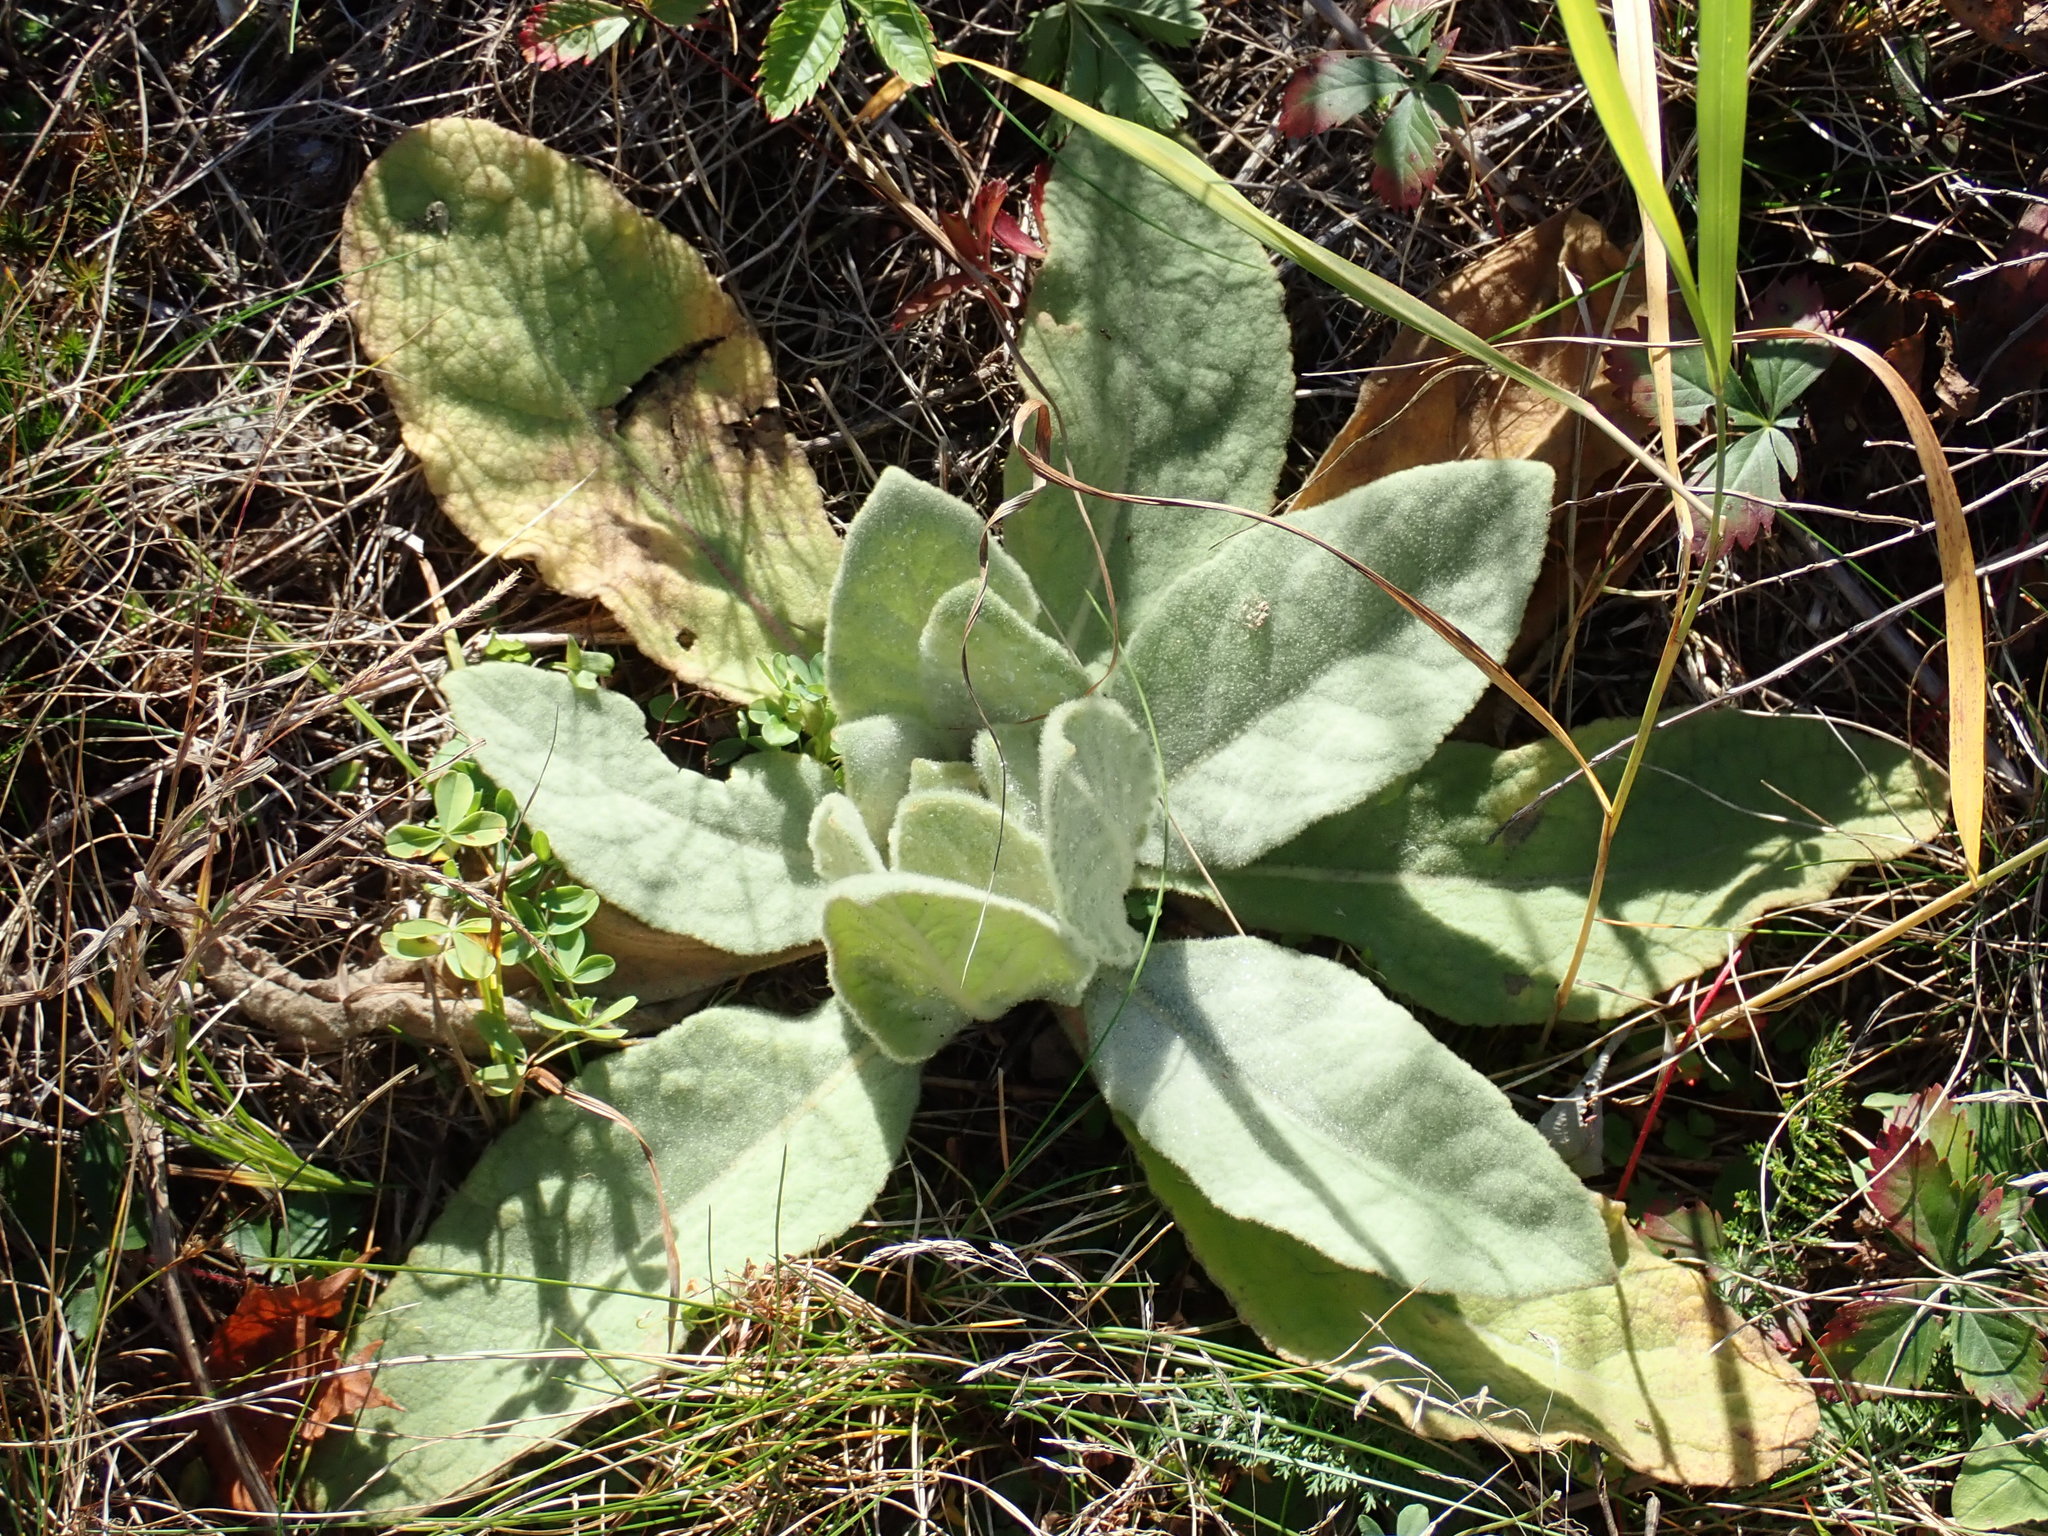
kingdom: Plantae
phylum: Tracheophyta
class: Magnoliopsida
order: Lamiales
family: Scrophulariaceae
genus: Verbascum
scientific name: Verbascum thapsus
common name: Common mullein
